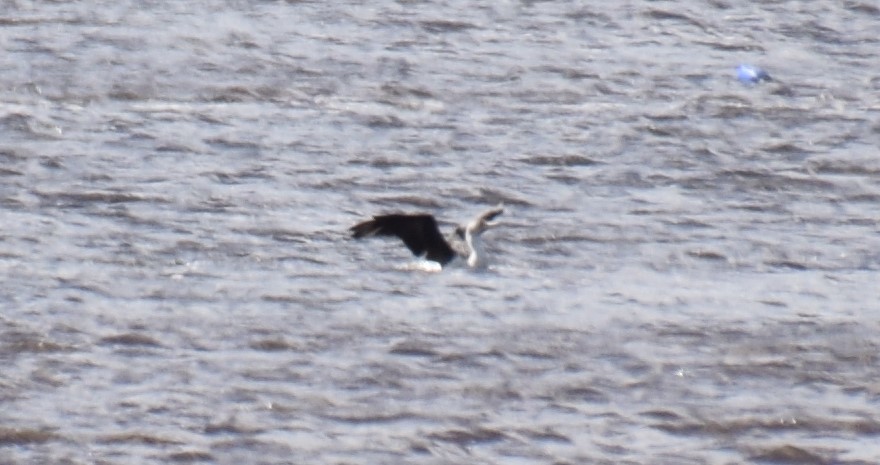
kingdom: Animalia
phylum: Chordata
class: Aves
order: Suliformes
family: Phalacrocoracidae
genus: Phalacrocorax
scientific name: Phalacrocorax varius
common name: Pied cormorant
